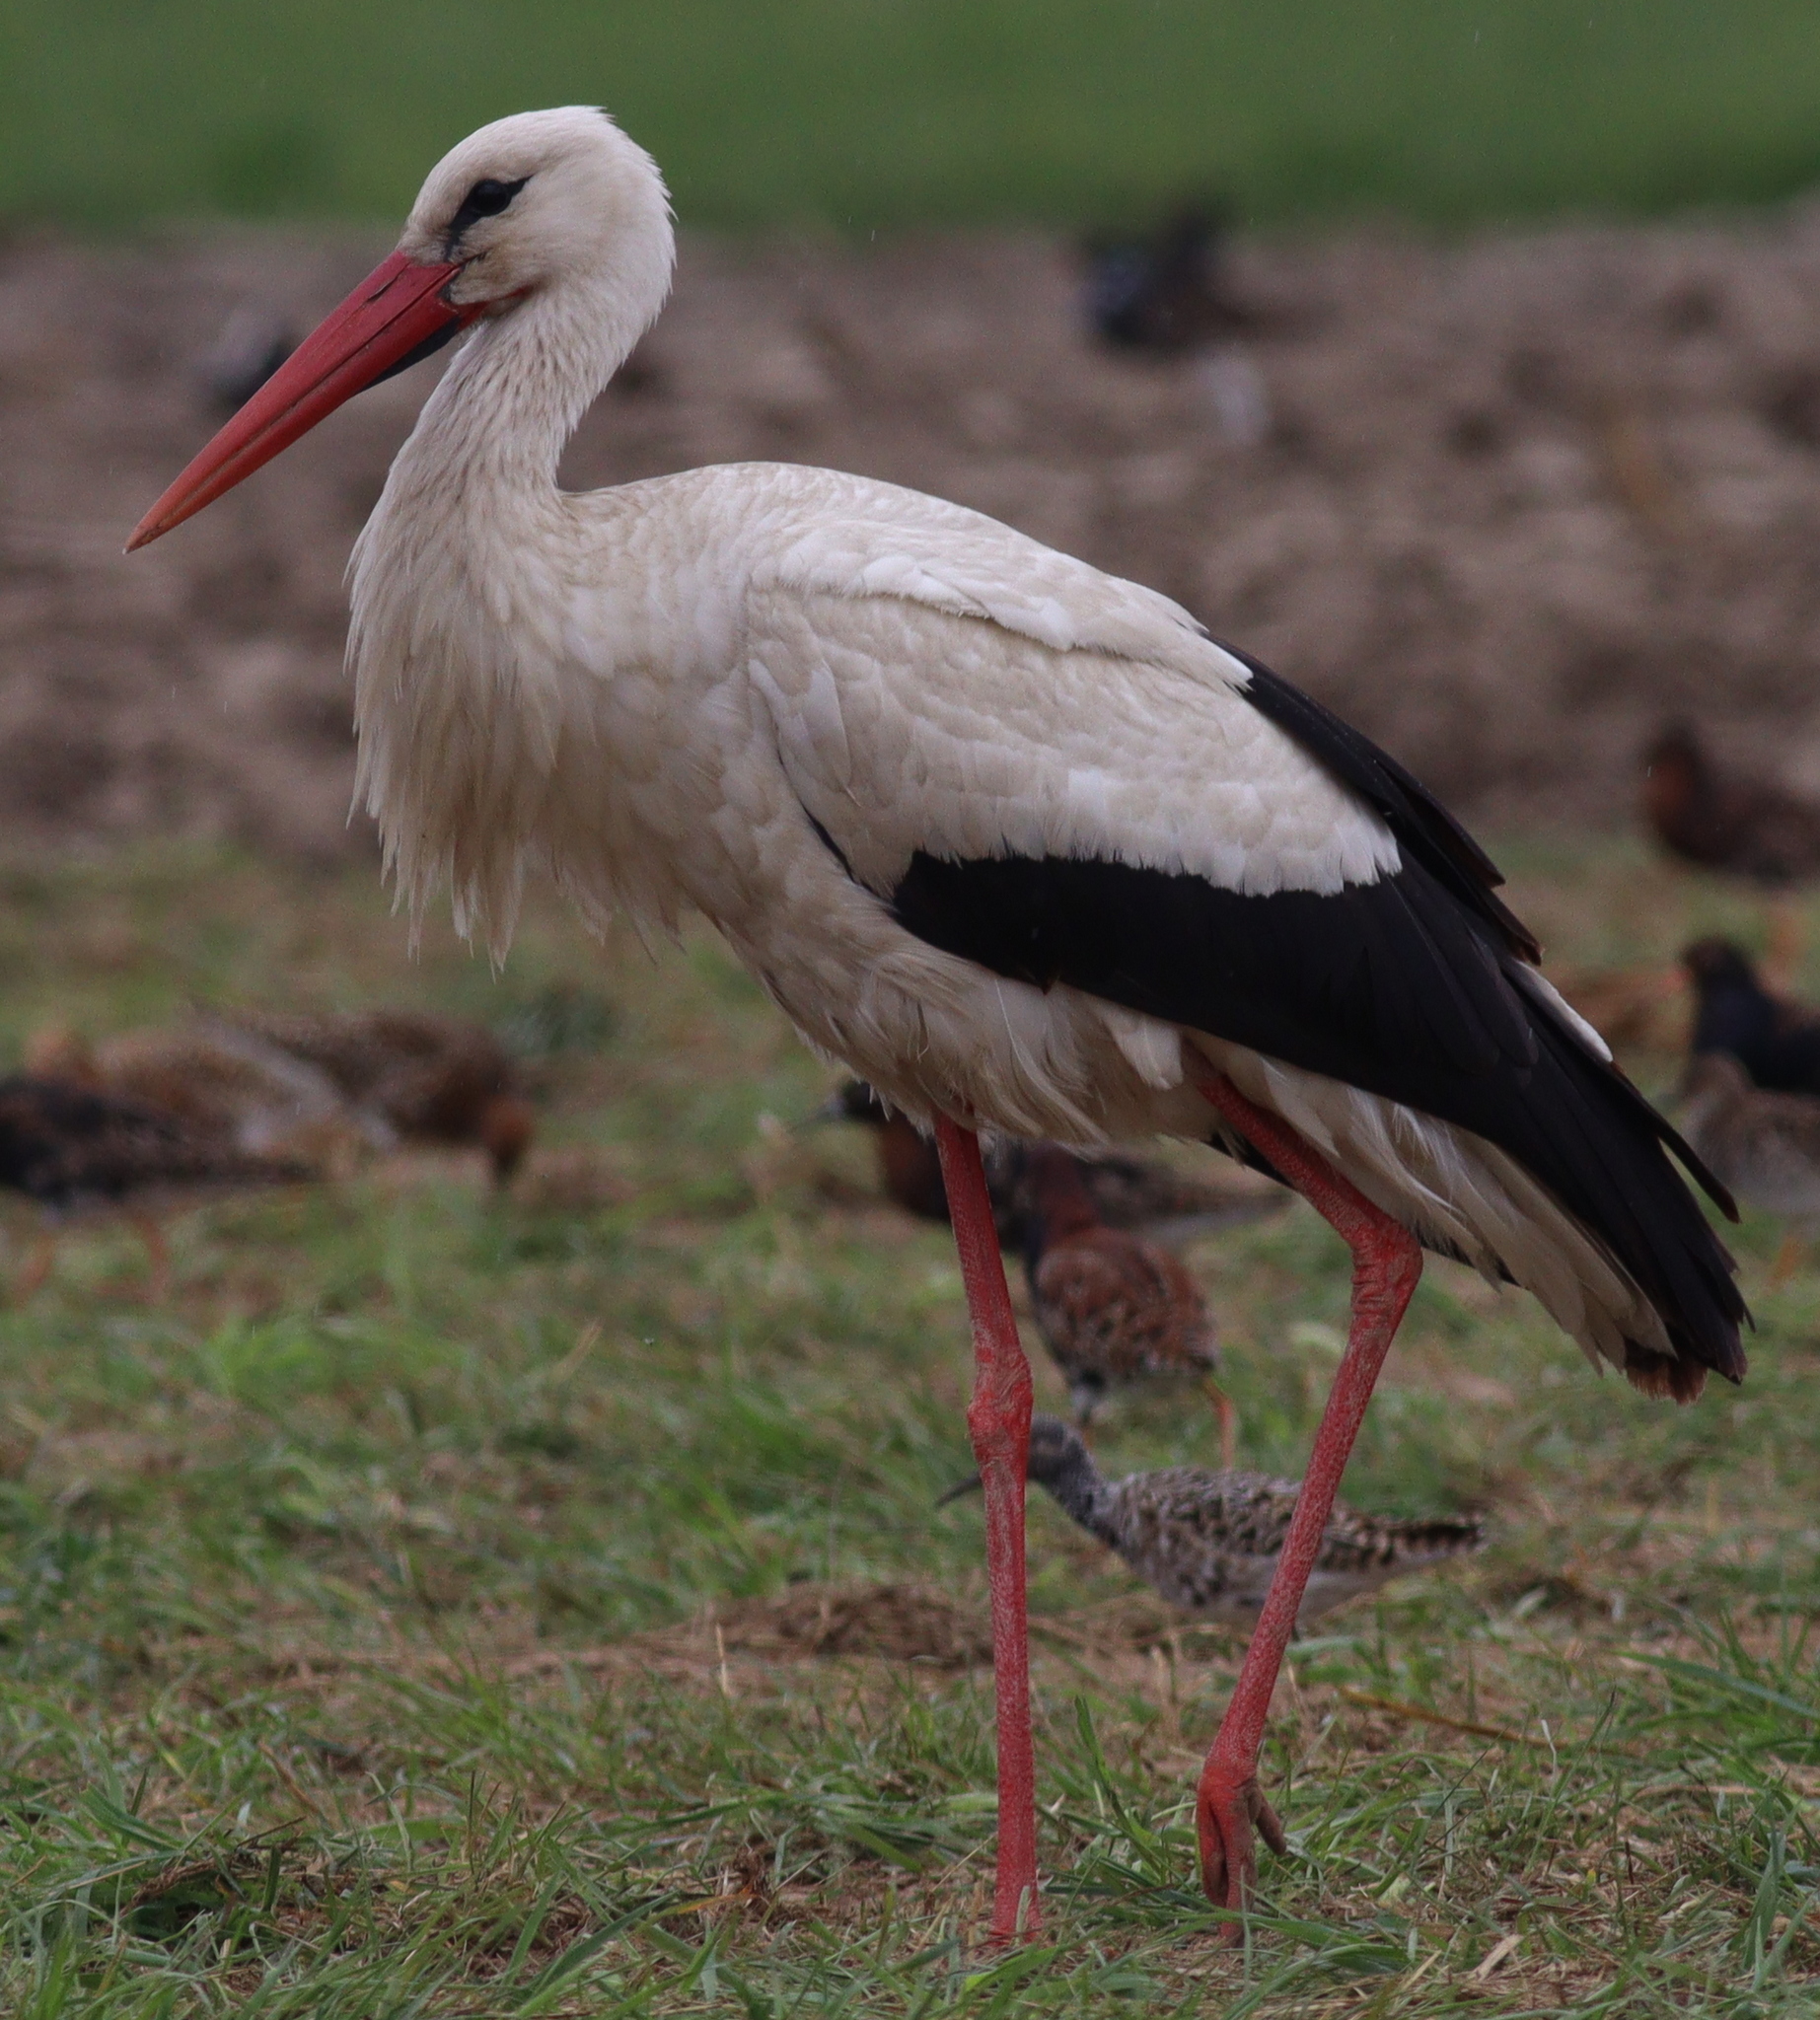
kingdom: Animalia
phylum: Chordata
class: Aves
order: Ciconiiformes
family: Ciconiidae
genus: Ciconia
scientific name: Ciconia ciconia
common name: White stork
